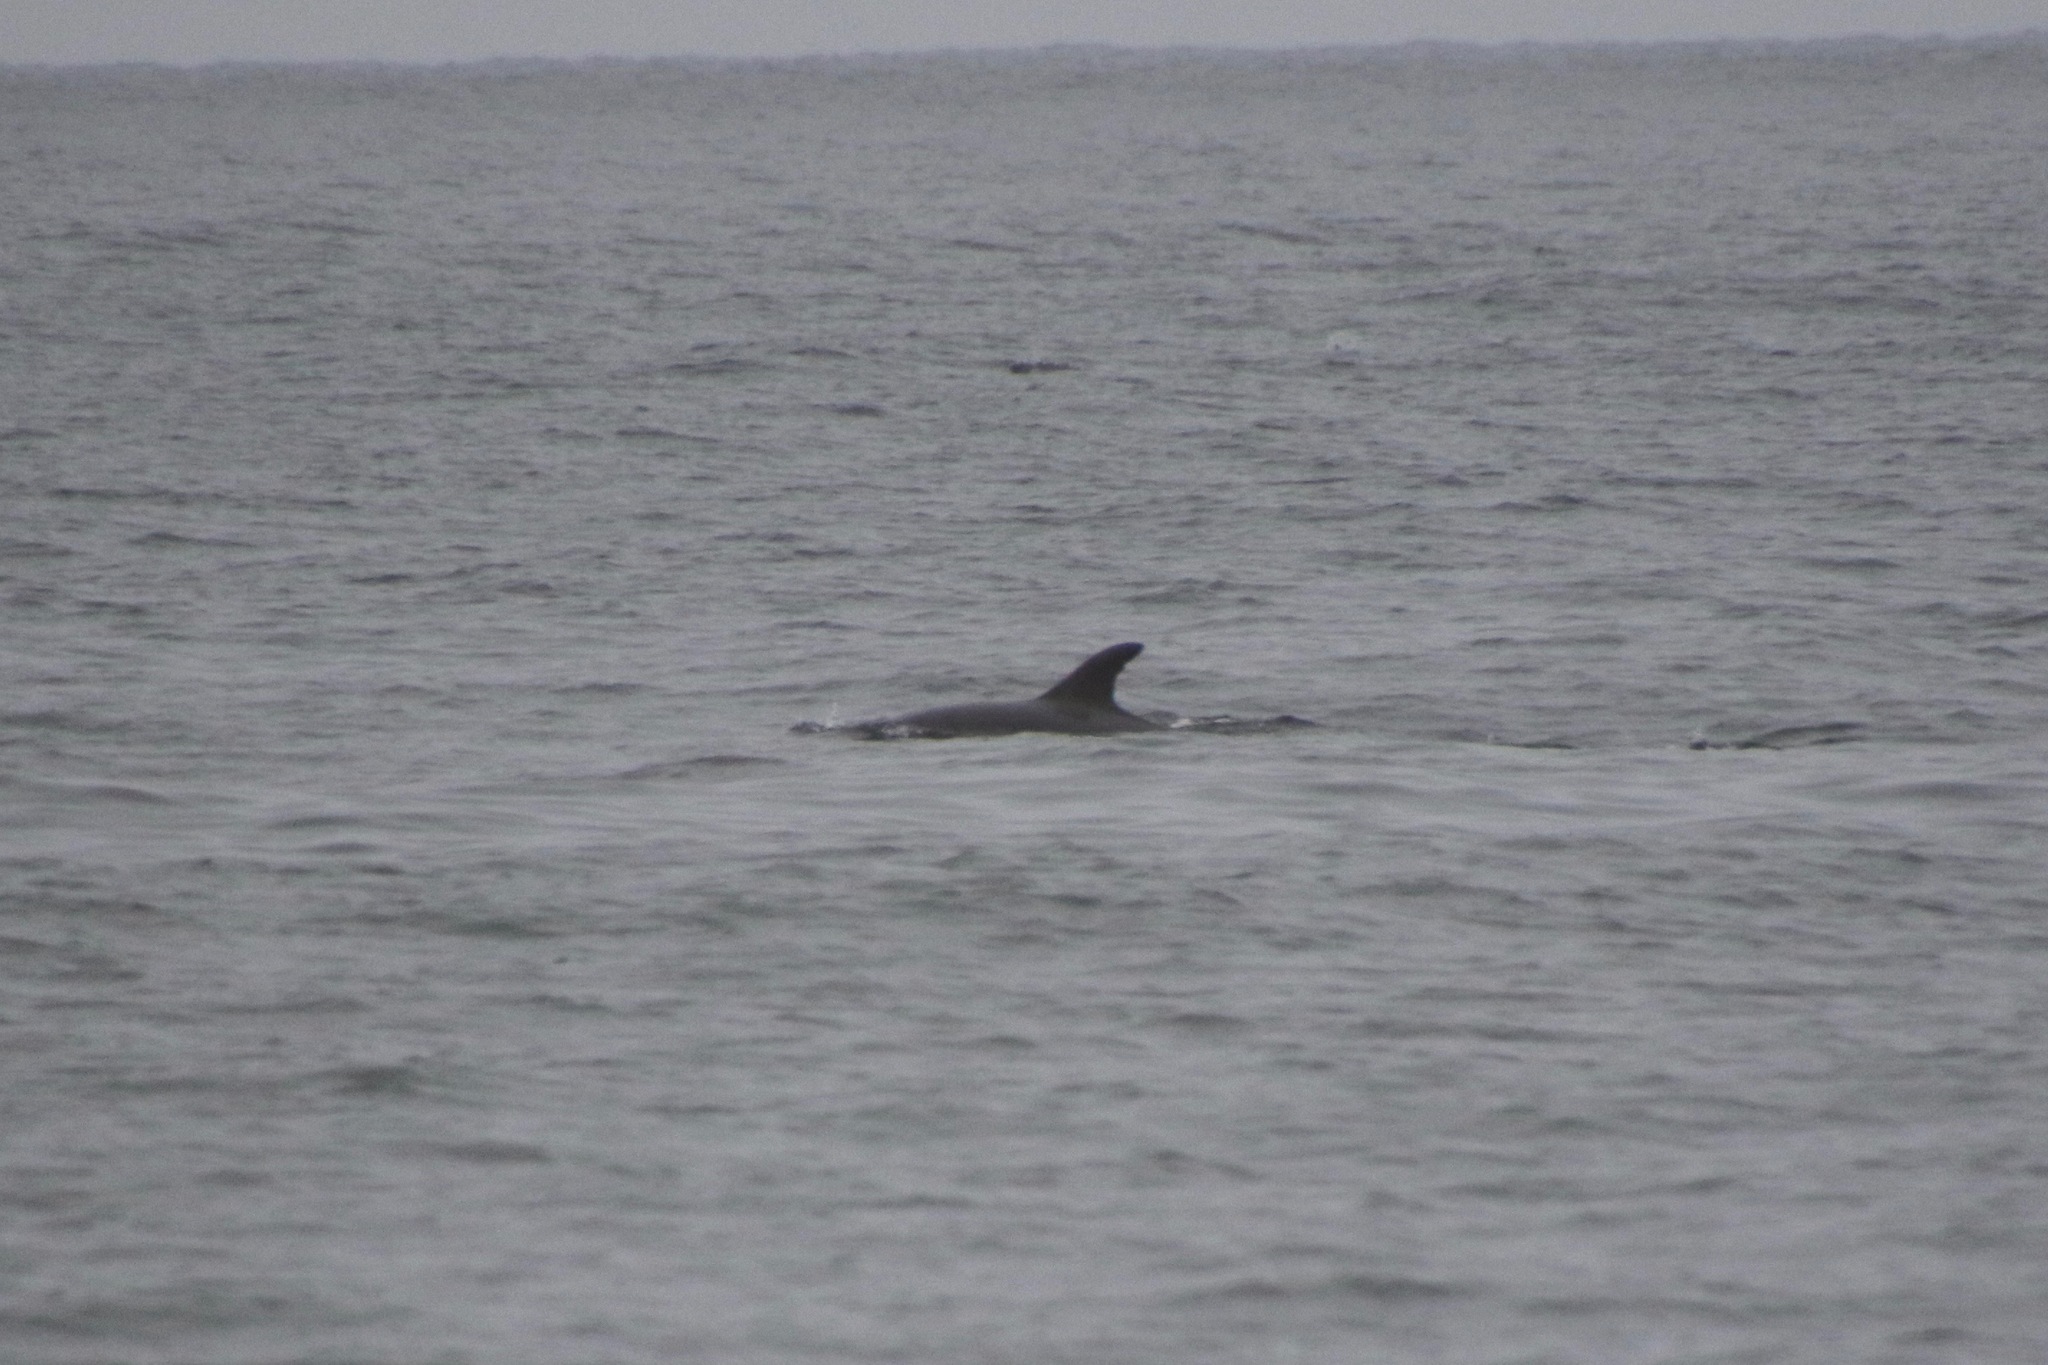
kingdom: Animalia
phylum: Chordata
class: Mammalia
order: Cetacea
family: Delphinidae
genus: Tursiops
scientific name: Tursiops truncatus
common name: Bottlenose dolphin
